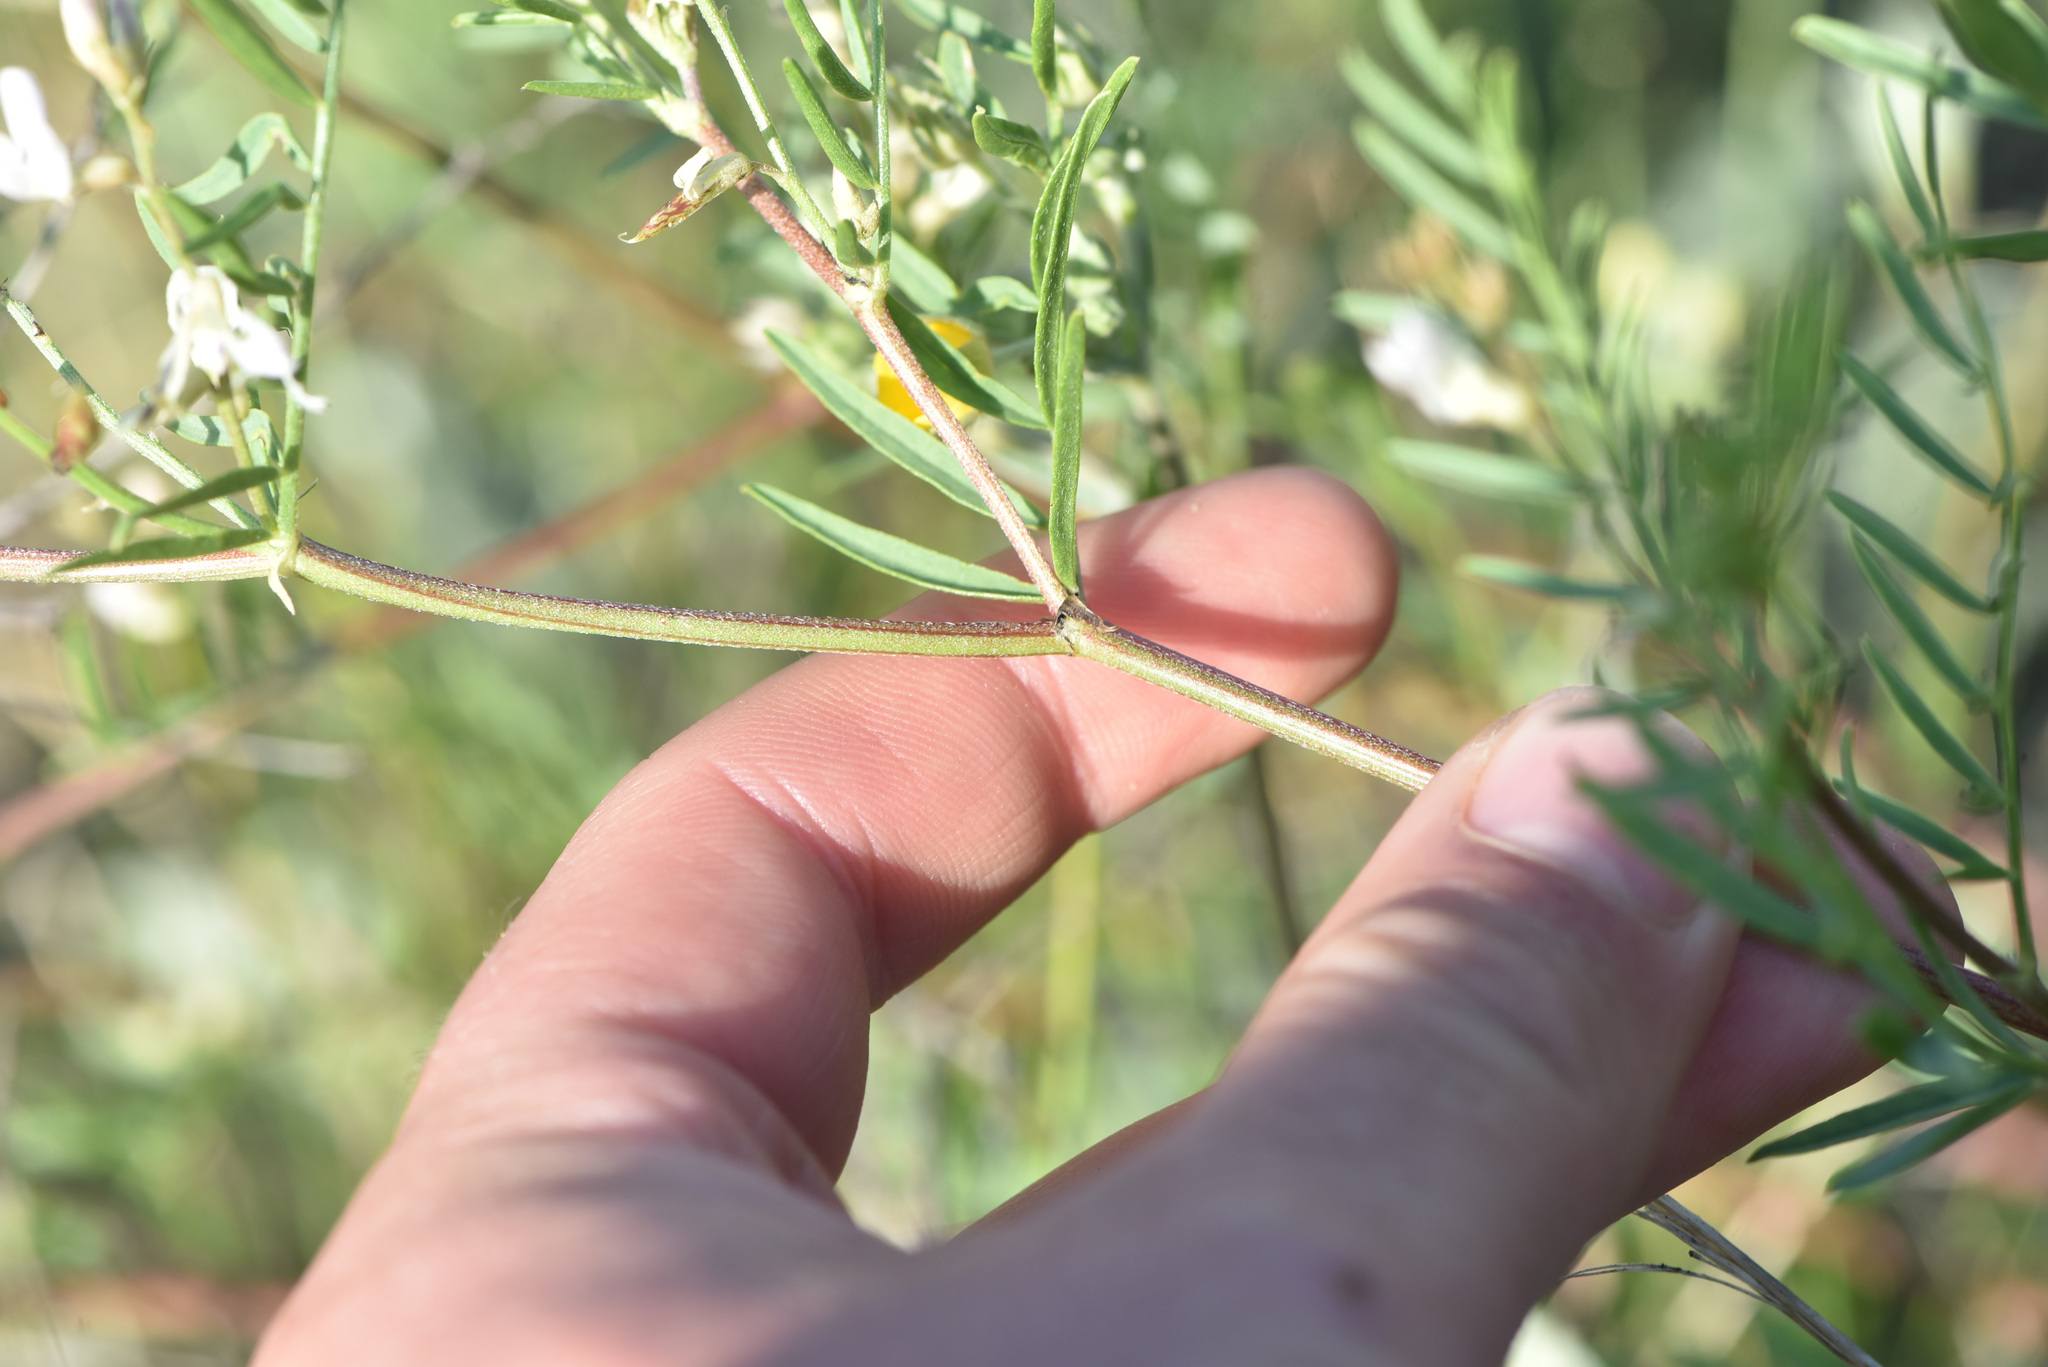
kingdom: Plantae
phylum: Tracheophyta
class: Magnoliopsida
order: Fabales
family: Fabaceae
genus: Astragalus
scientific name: Astragalus tenellus
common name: Pulse milk-vetch
